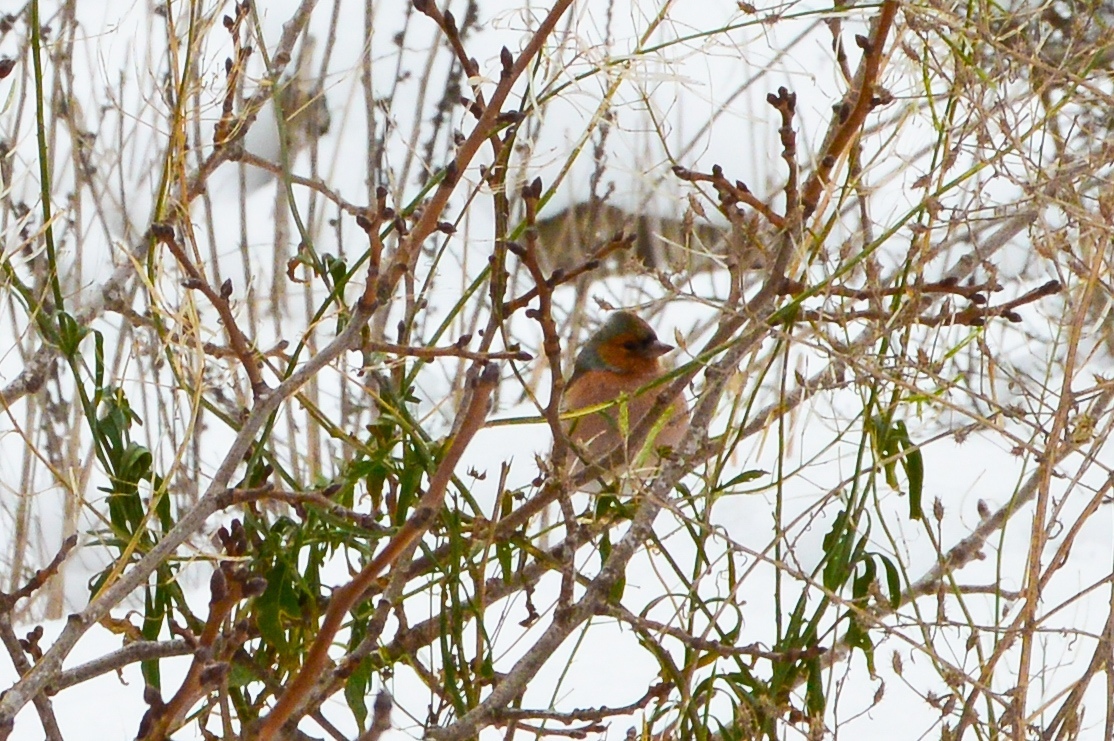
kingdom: Animalia
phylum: Chordata
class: Aves
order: Passeriformes
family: Fringillidae
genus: Fringilla
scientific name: Fringilla coelebs
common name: Common chaffinch
